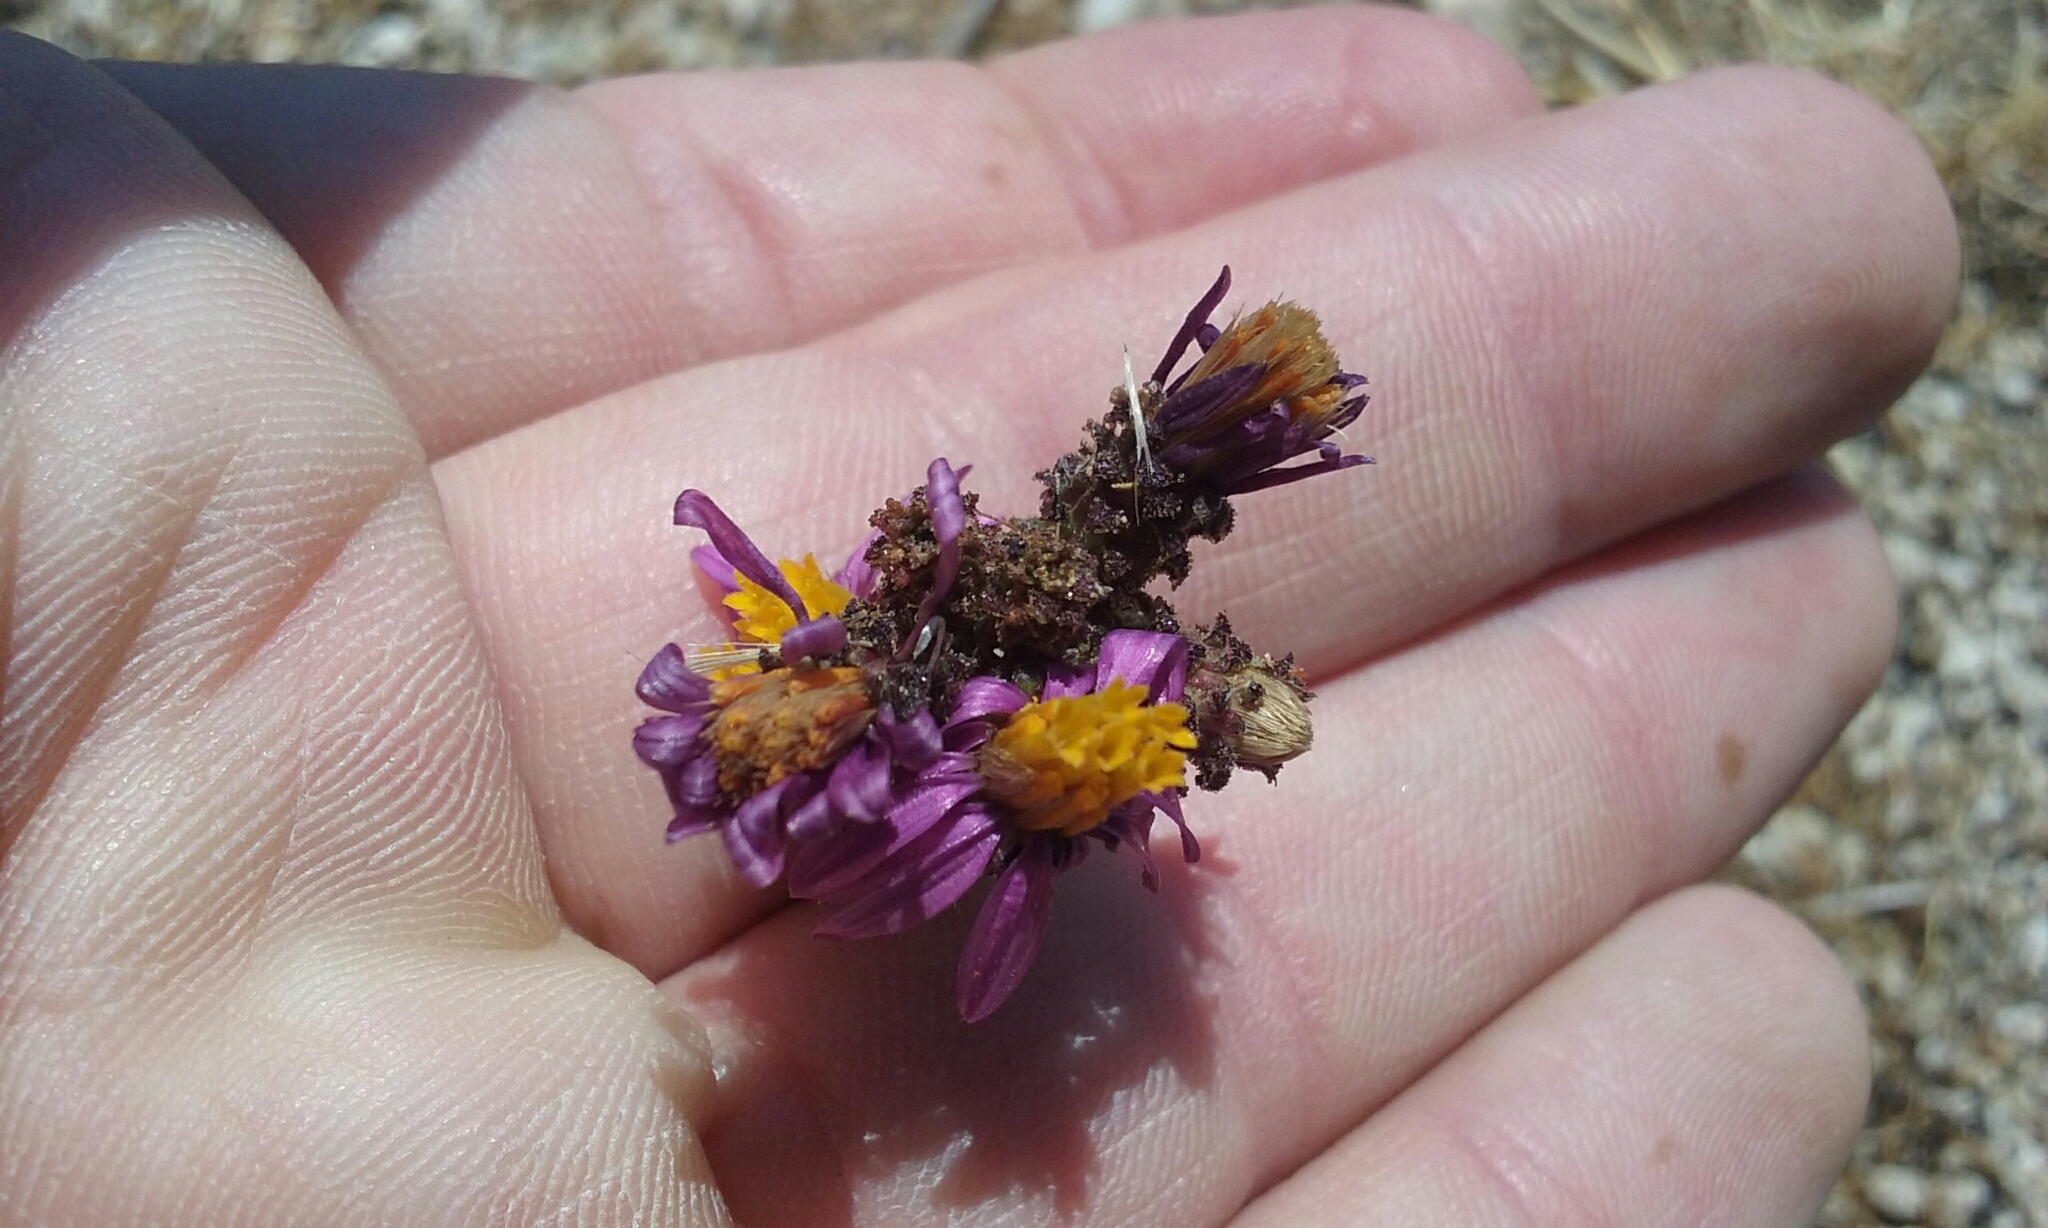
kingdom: Plantae
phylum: Tracheophyta
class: Magnoliopsida
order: Asterales
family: Asteraceae
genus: Corethrogyne
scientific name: Corethrogyne filaginifolia
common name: Sand-aster
